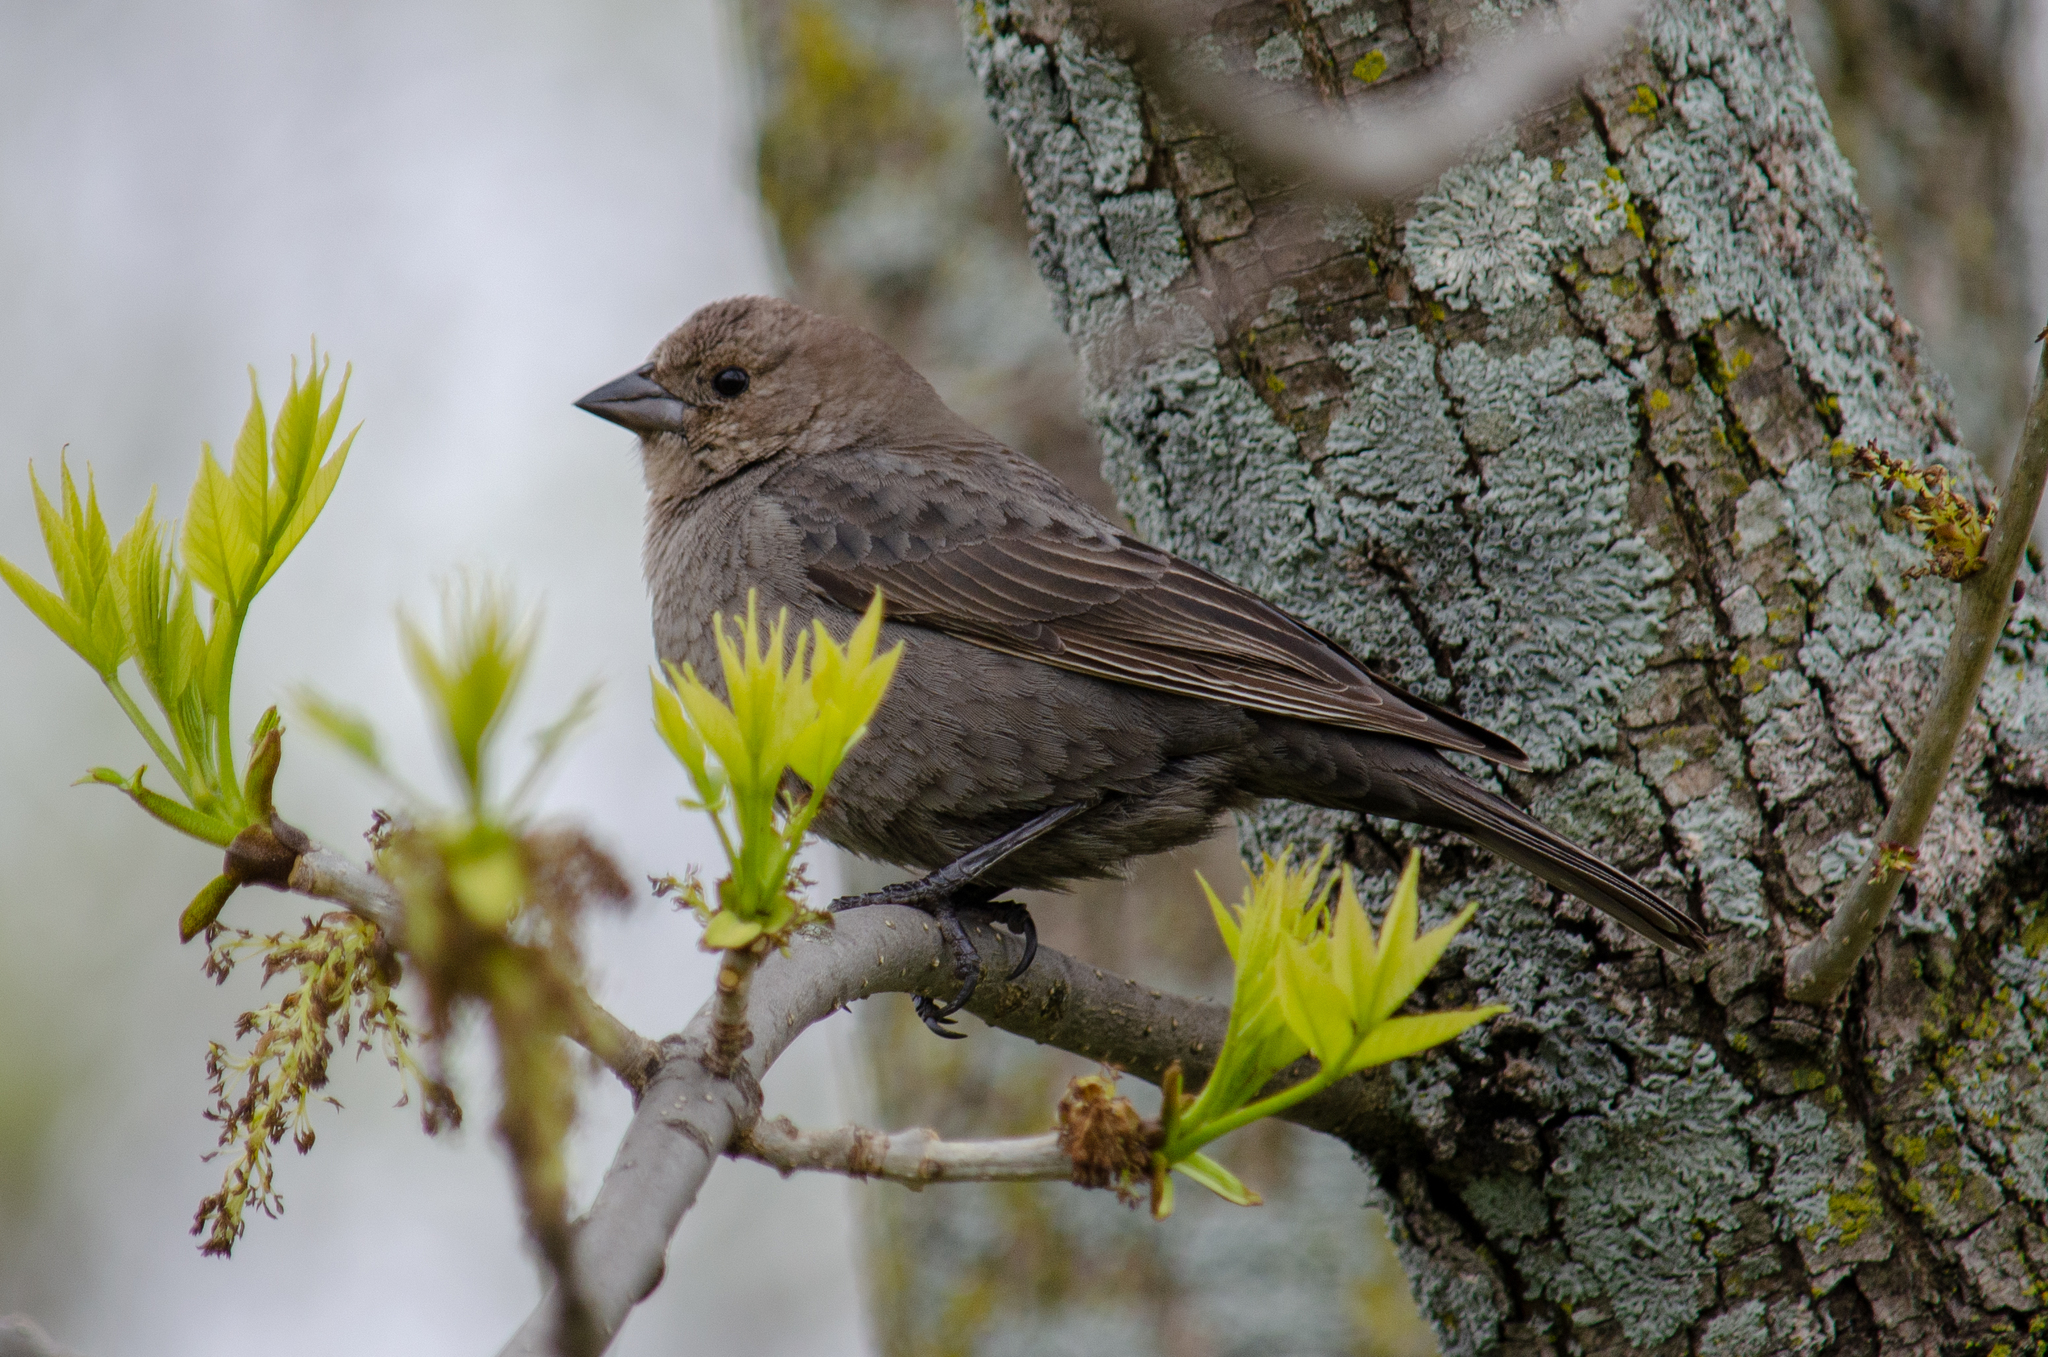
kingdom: Animalia
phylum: Chordata
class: Aves
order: Passeriformes
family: Icteridae
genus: Molothrus
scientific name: Molothrus ater
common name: Brown-headed cowbird
